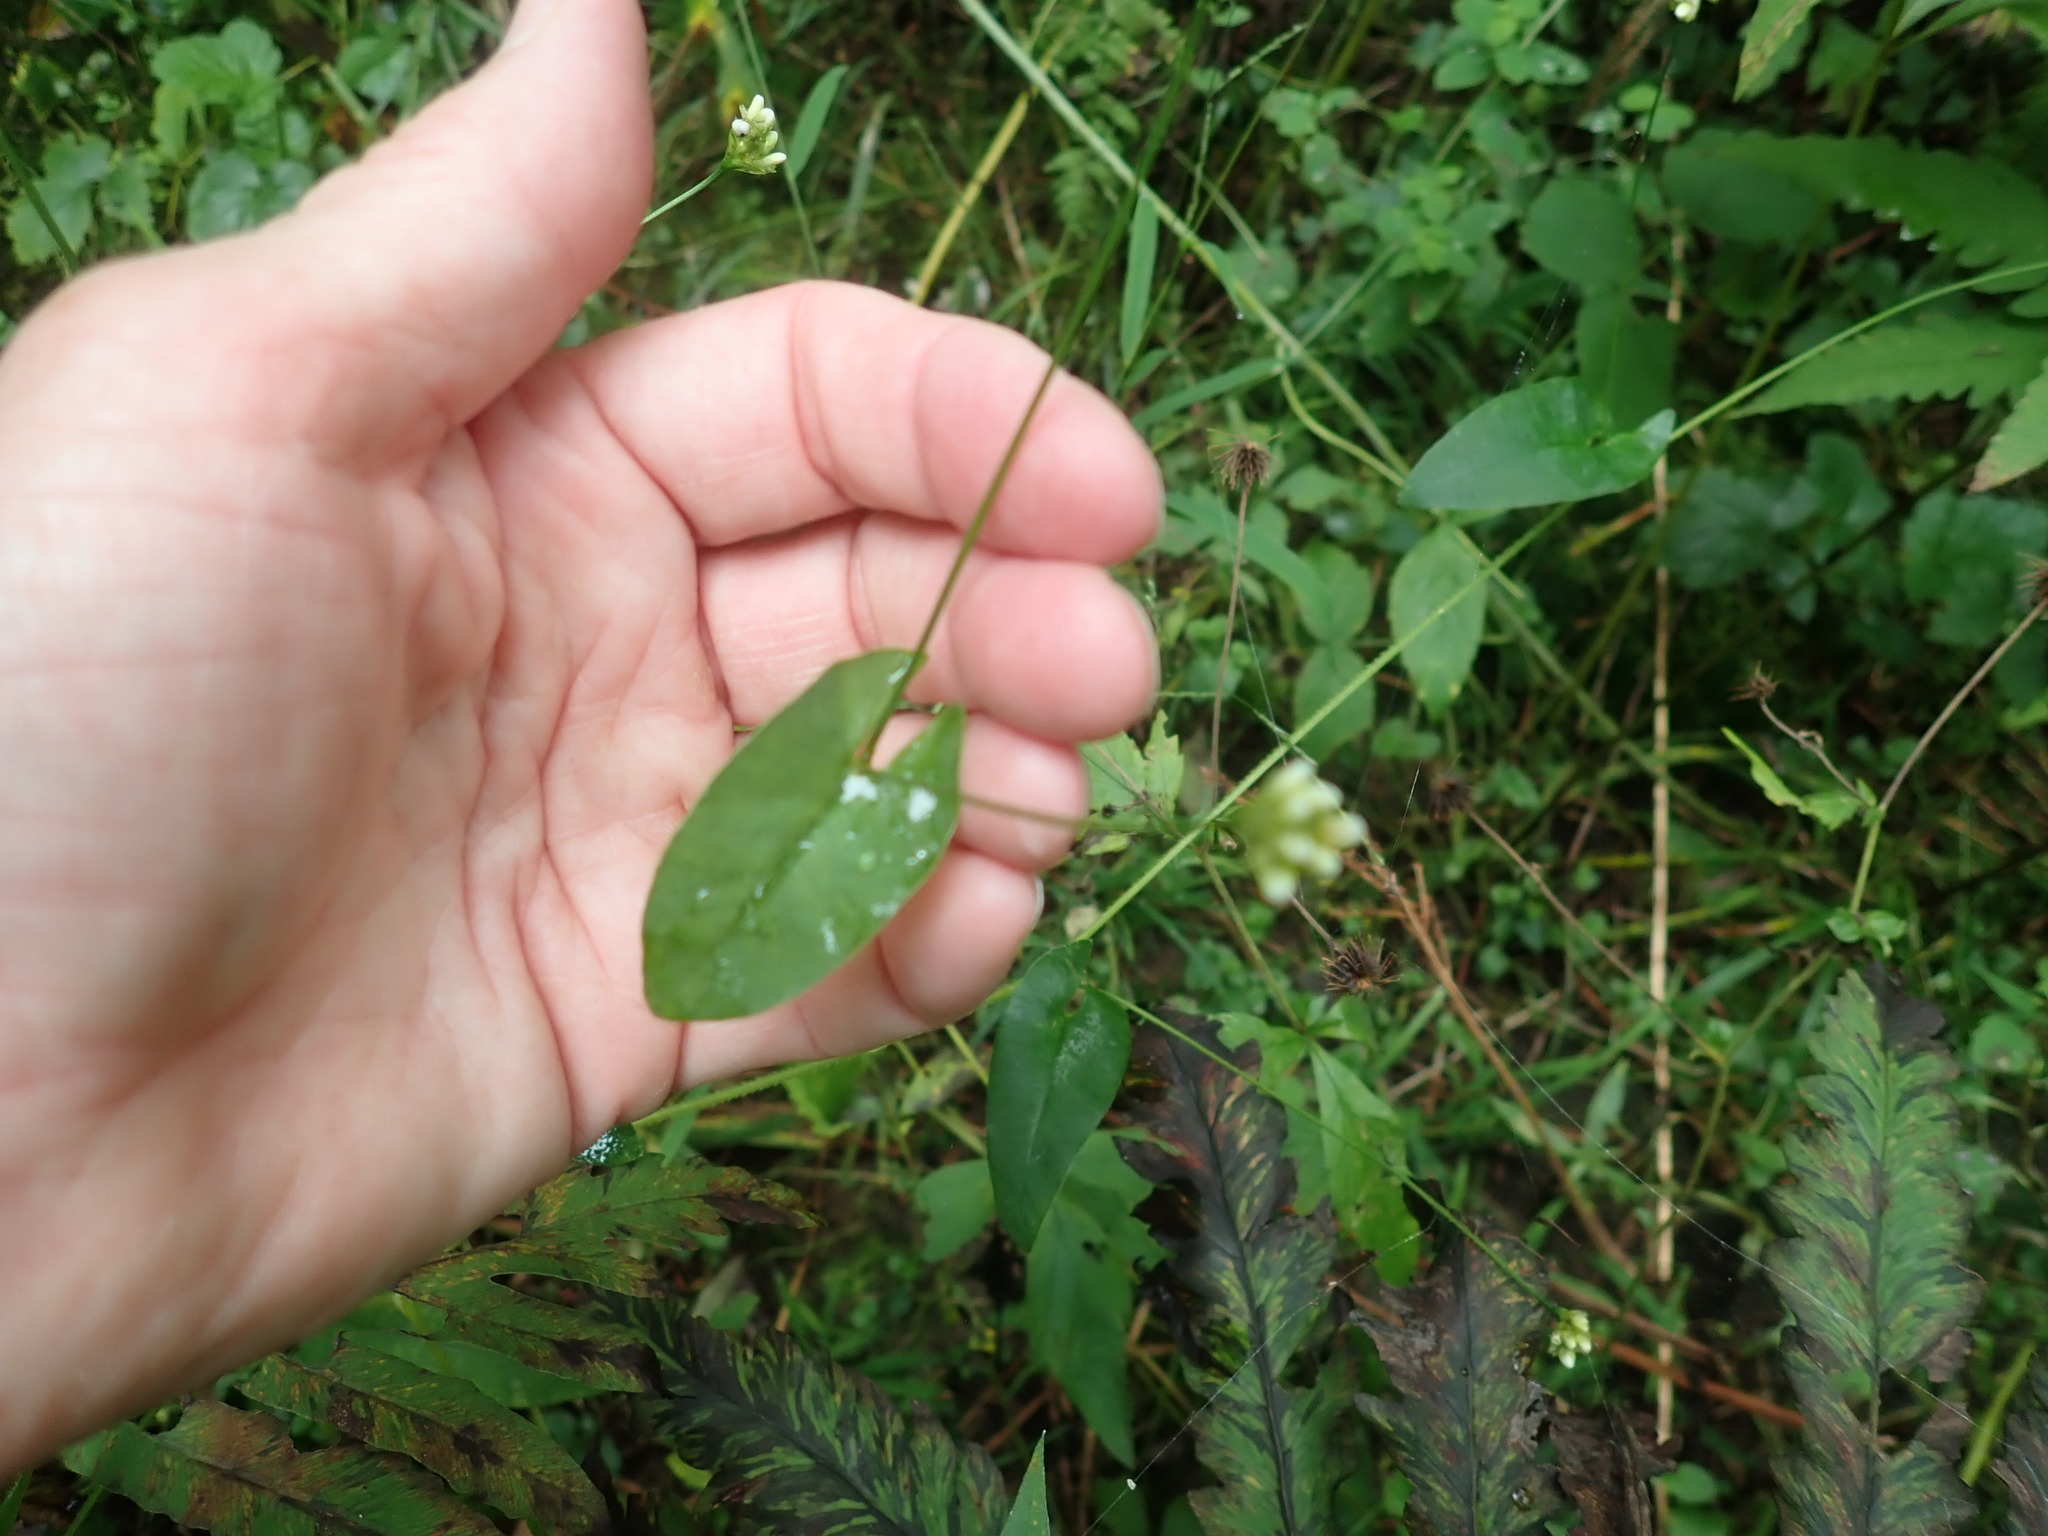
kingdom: Plantae
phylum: Tracheophyta
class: Magnoliopsida
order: Caryophyllales
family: Polygonaceae
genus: Persicaria
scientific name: Persicaria sagittata
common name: American tearthumb
